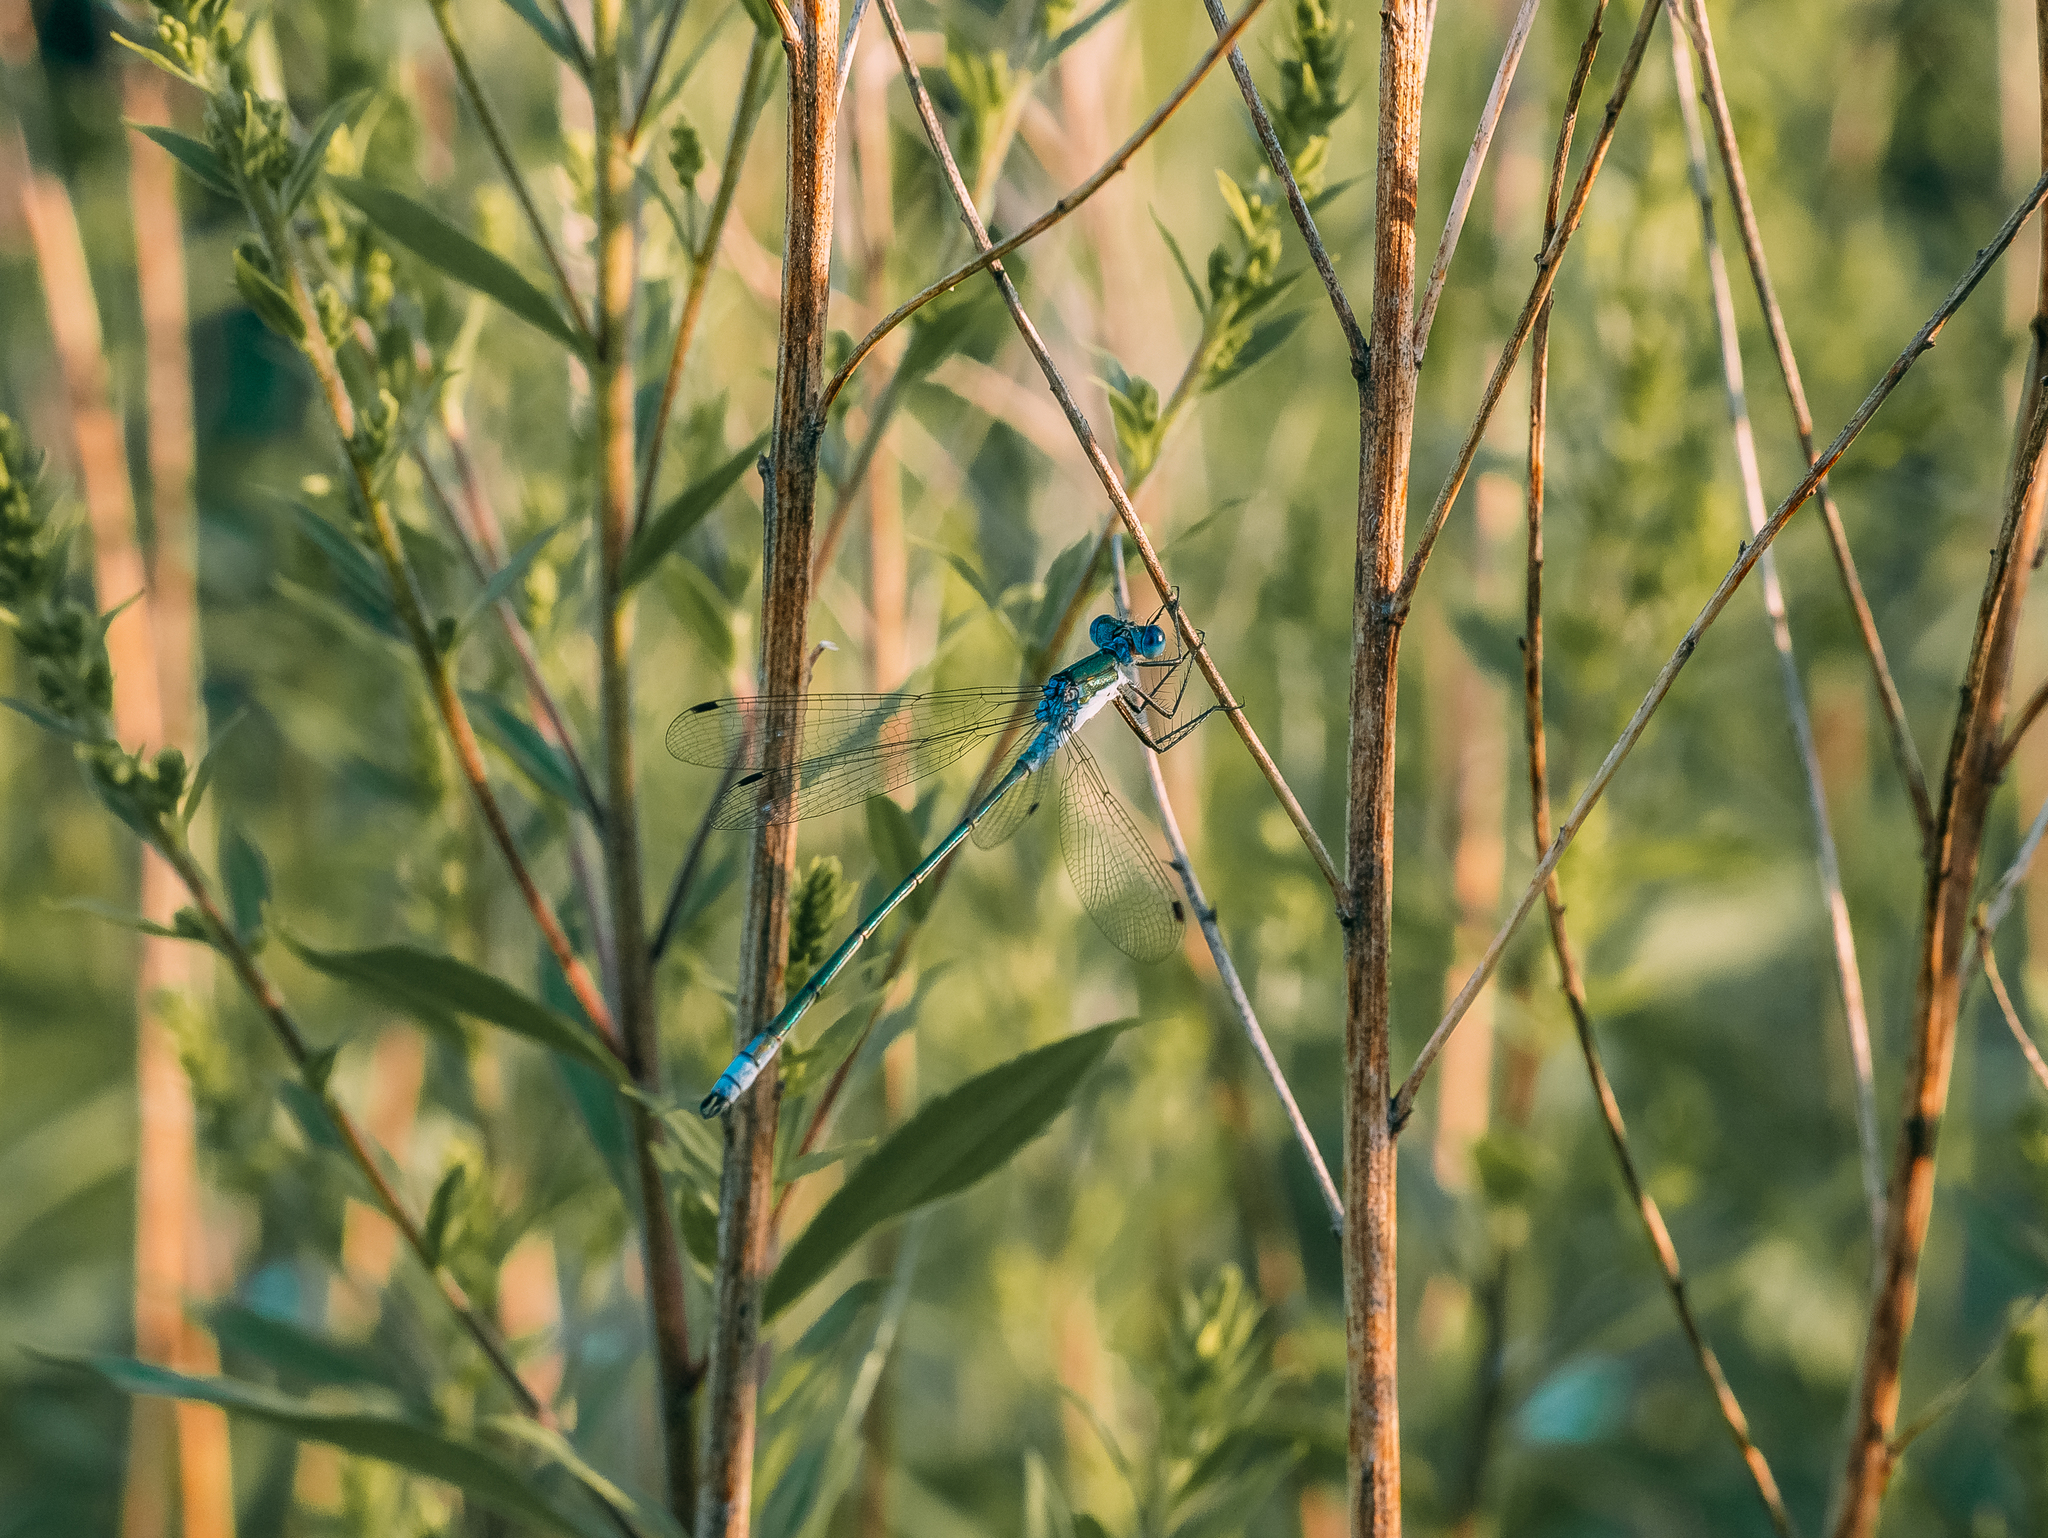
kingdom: Animalia
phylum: Arthropoda
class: Insecta
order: Odonata
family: Lestidae
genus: Lestes
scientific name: Lestes sponsa
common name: Common spreadwing
